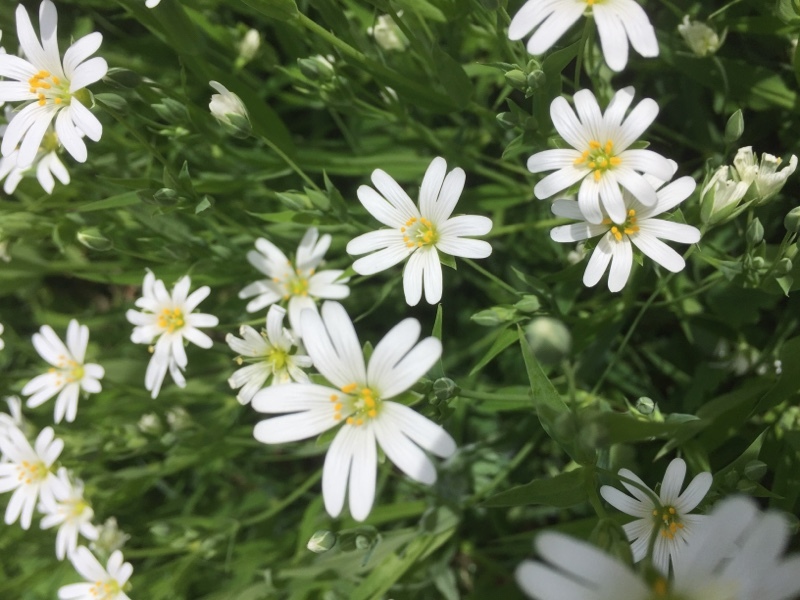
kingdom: Plantae
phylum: Tracheophyta
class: Magnoliopsida
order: Caryophyllales
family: Caryophyllaceae
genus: Rabelera
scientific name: Rabelera holostea
